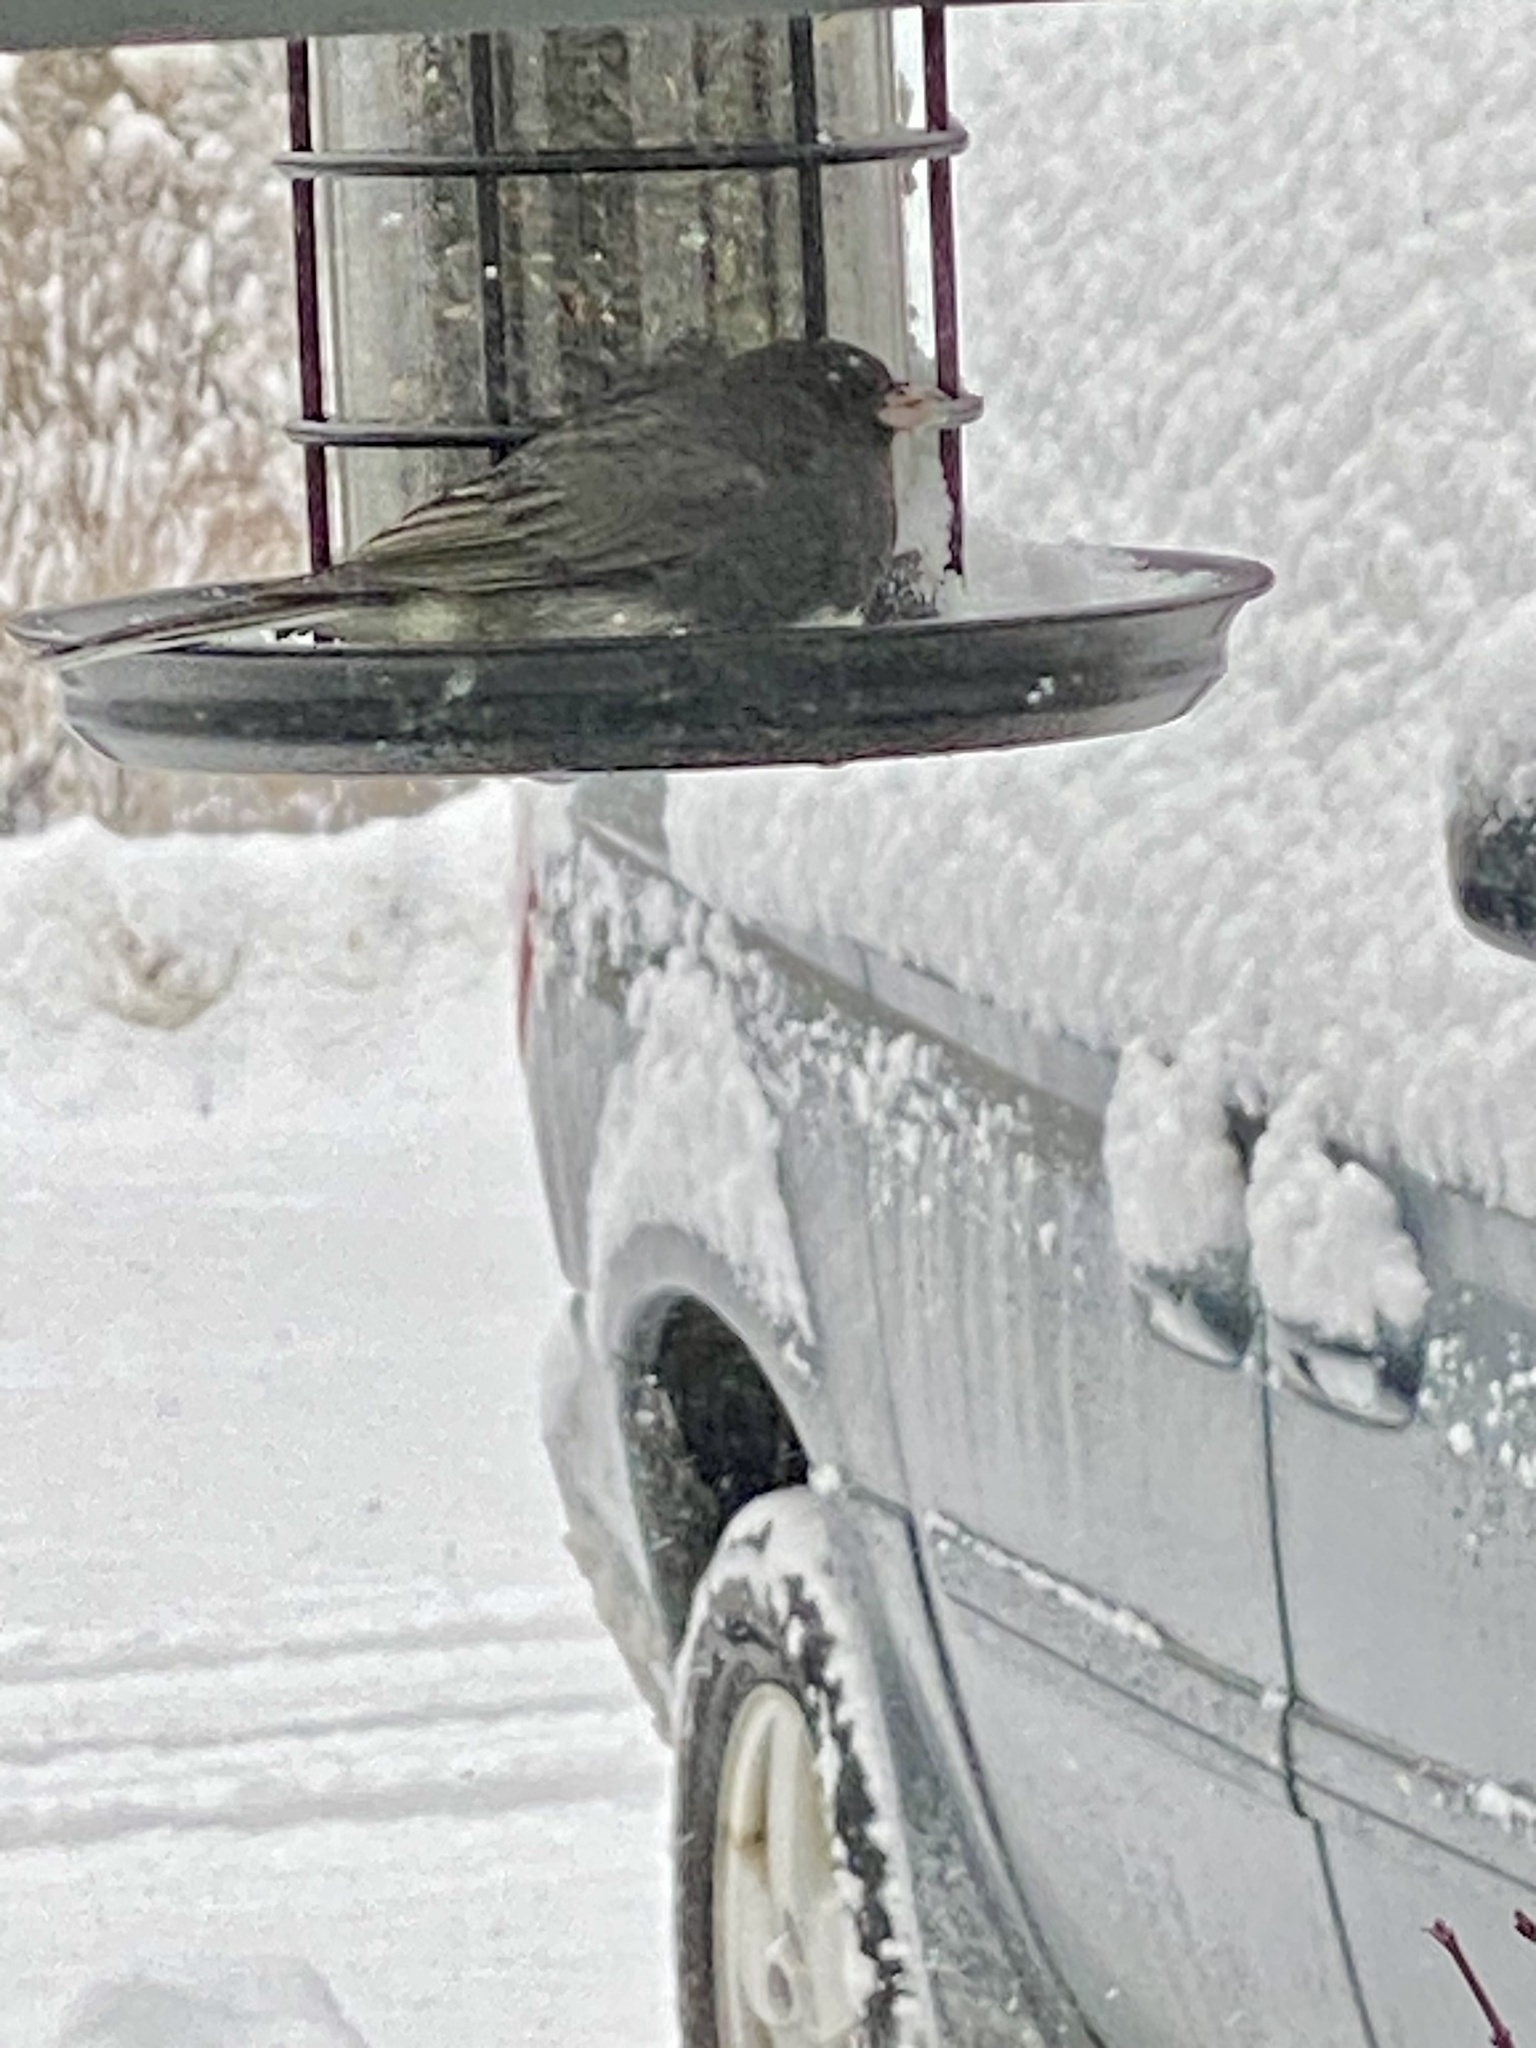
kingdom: Animalia
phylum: Chordata
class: Aves
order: Passeriformes
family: Passerellidae
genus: Junco
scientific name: Junco hyemalis
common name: Dark-eyed junco
